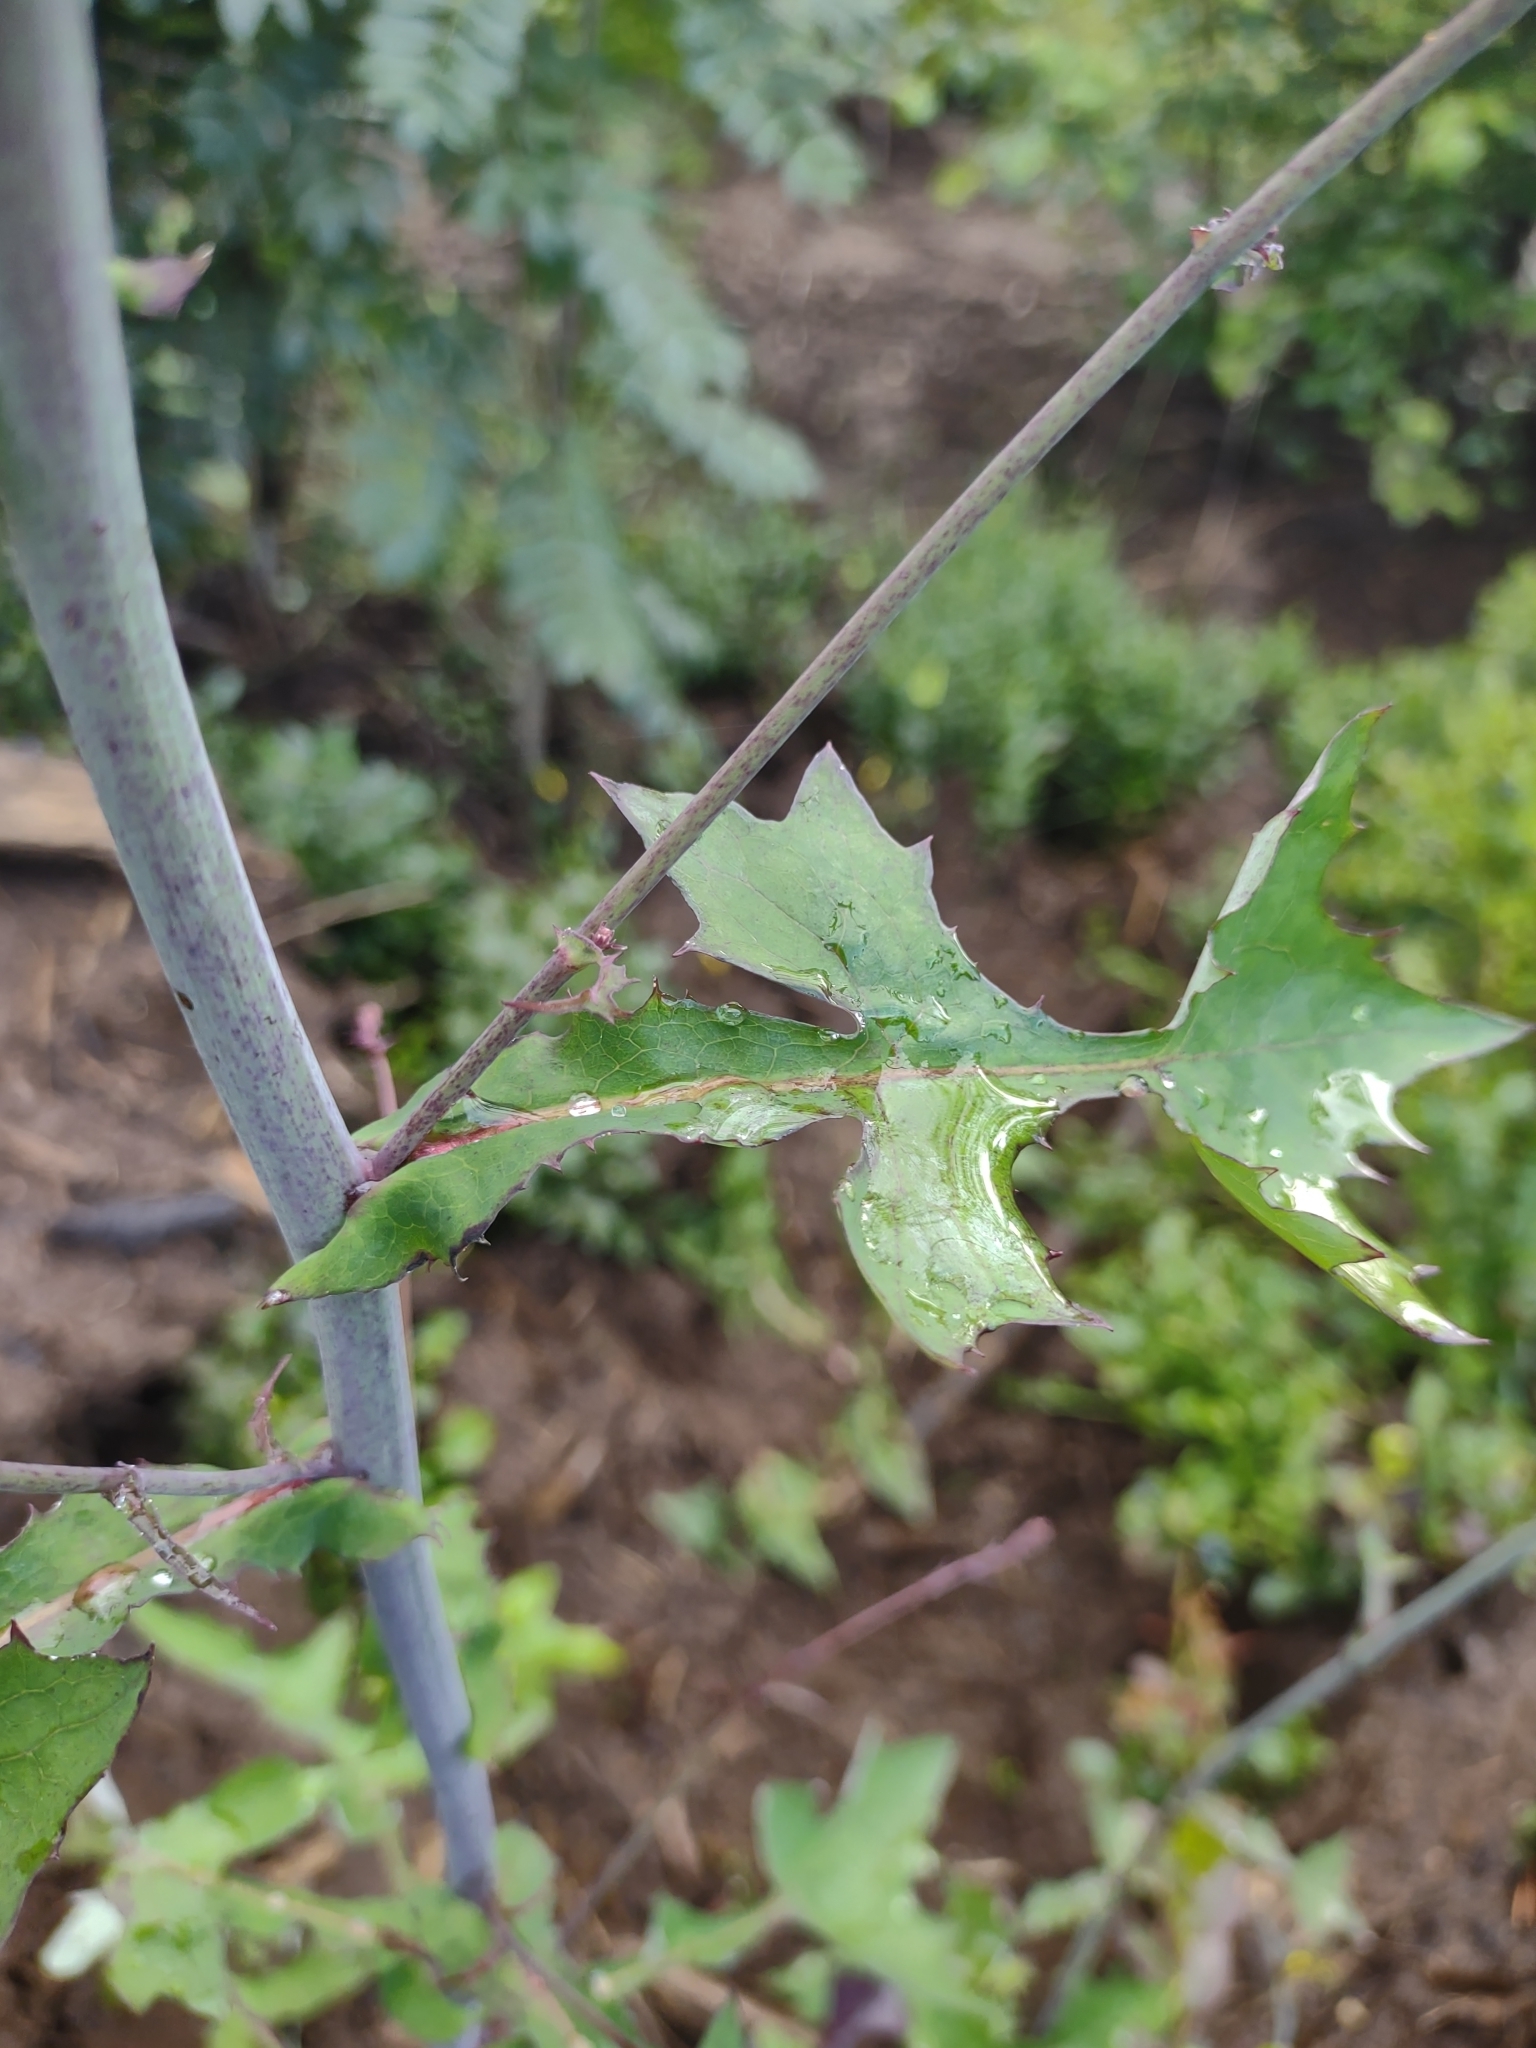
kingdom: Plantae
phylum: Tracheophyta
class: Magnoliopsida
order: Asterales
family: Asteraceae
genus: Mycelis
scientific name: Mycelis muralis
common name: Wall lettuce
